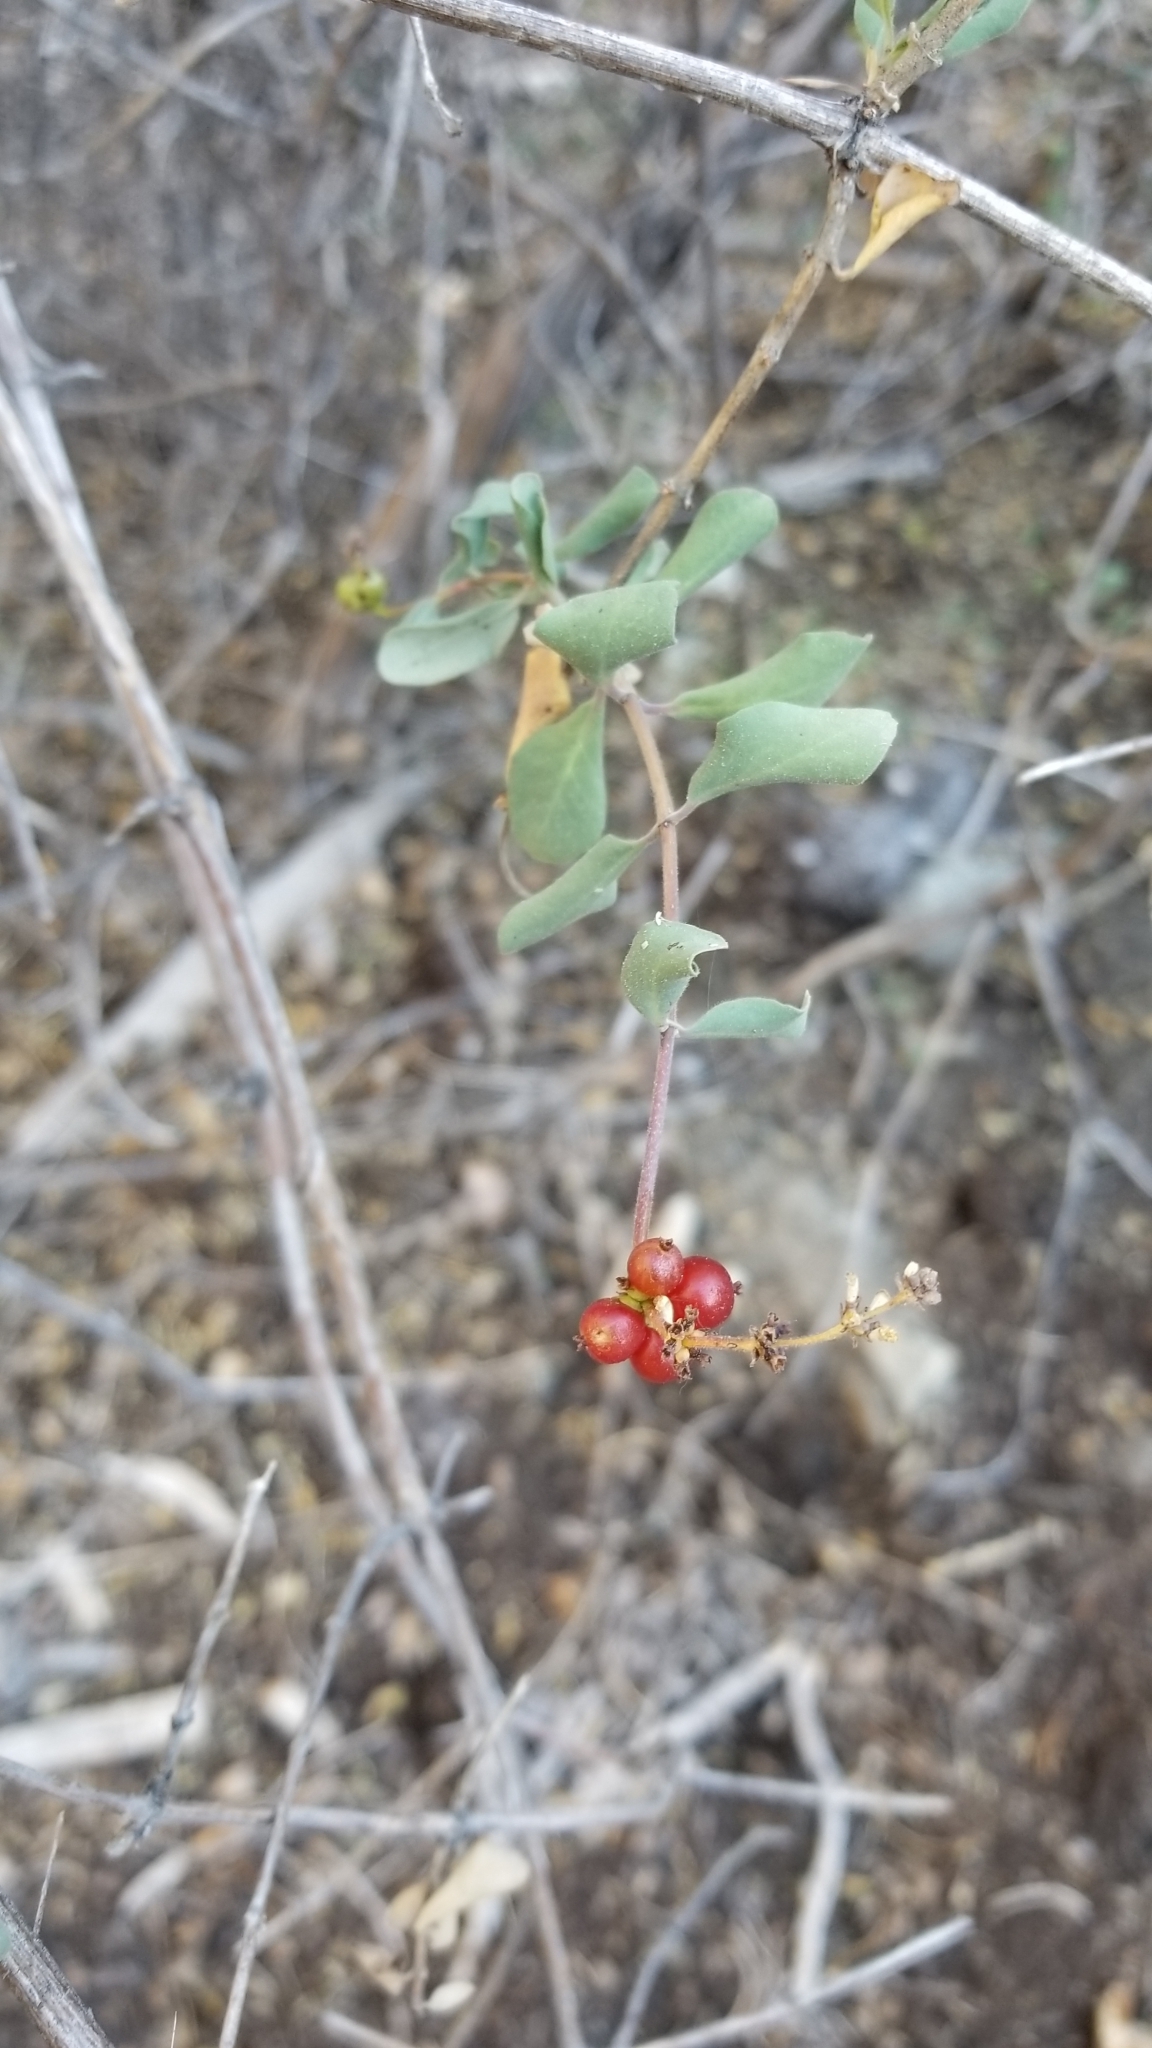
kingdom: Plantae
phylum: Tracheophyta
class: Magnoliopsida
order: Dipsacales
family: Caprifoliaceae
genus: Lonicera
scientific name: Lonicera subspicata
